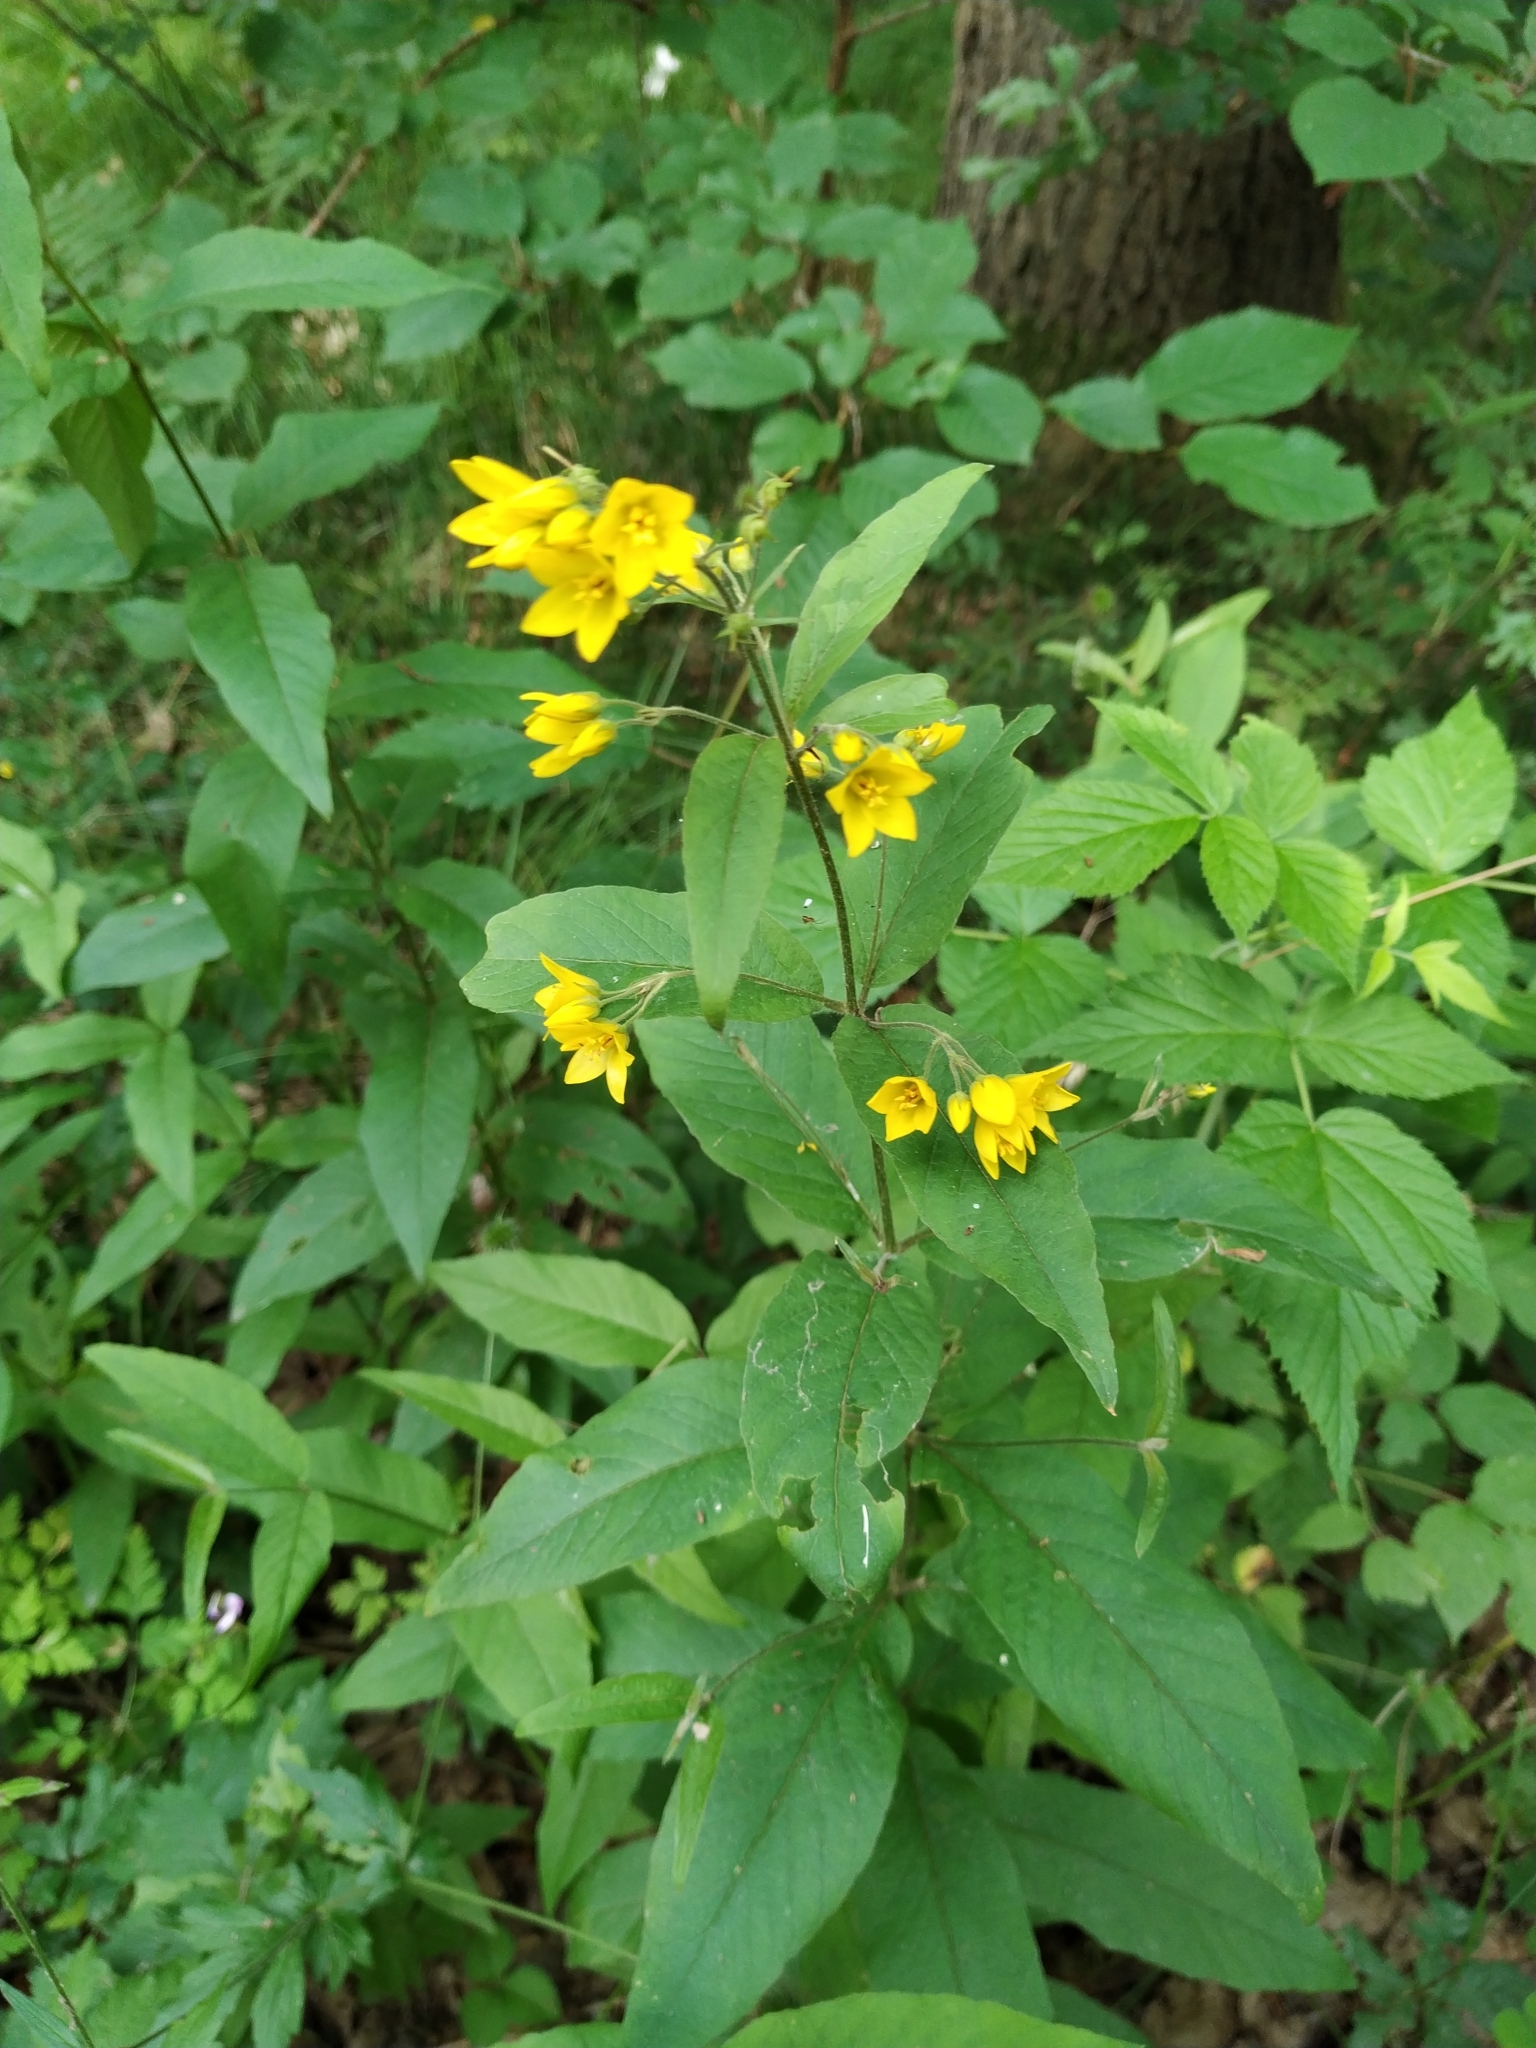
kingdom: Plantae
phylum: Tracheophyta
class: Magnoliopsida
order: Ericales
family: Primulaceae
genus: Lysimachia
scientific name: Lysimachia vulgaris
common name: Yellow loosestrife
